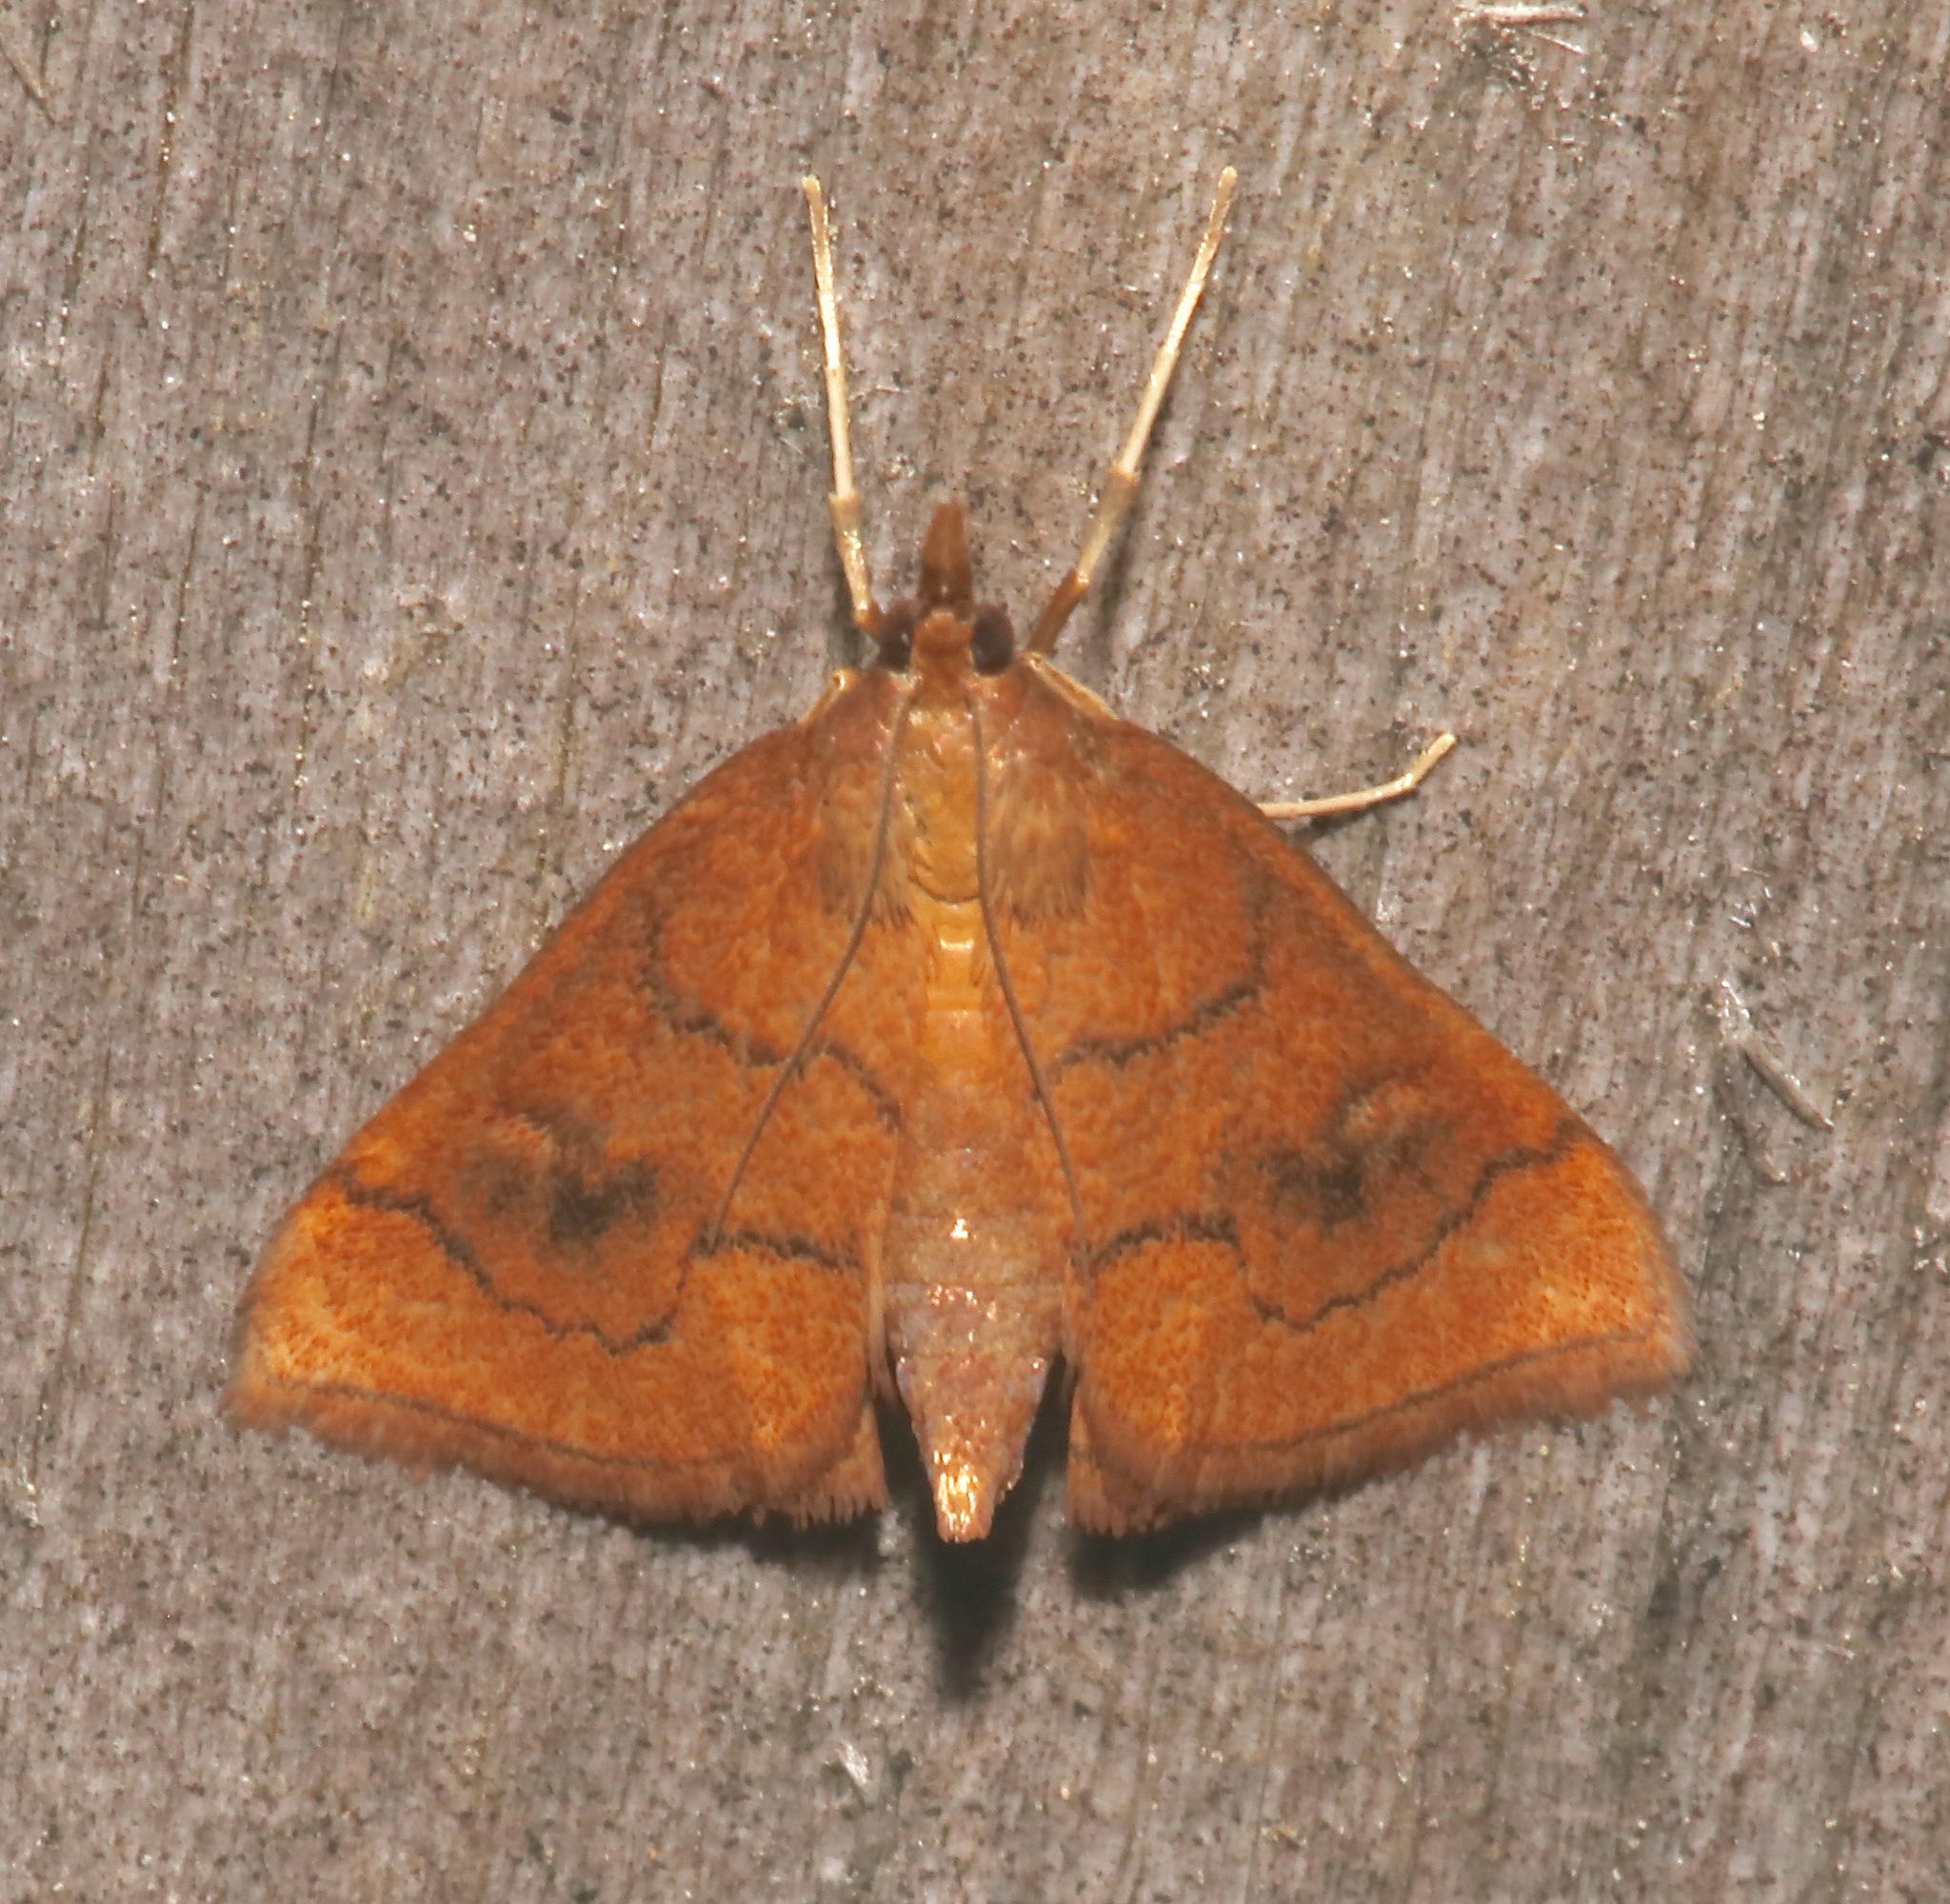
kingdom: Animalia
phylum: Arthropoda
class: Insecta
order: Lepidoptera
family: Crambidae
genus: Fumibotys
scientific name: Fumibotys fumalis
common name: Mint root borer moth
